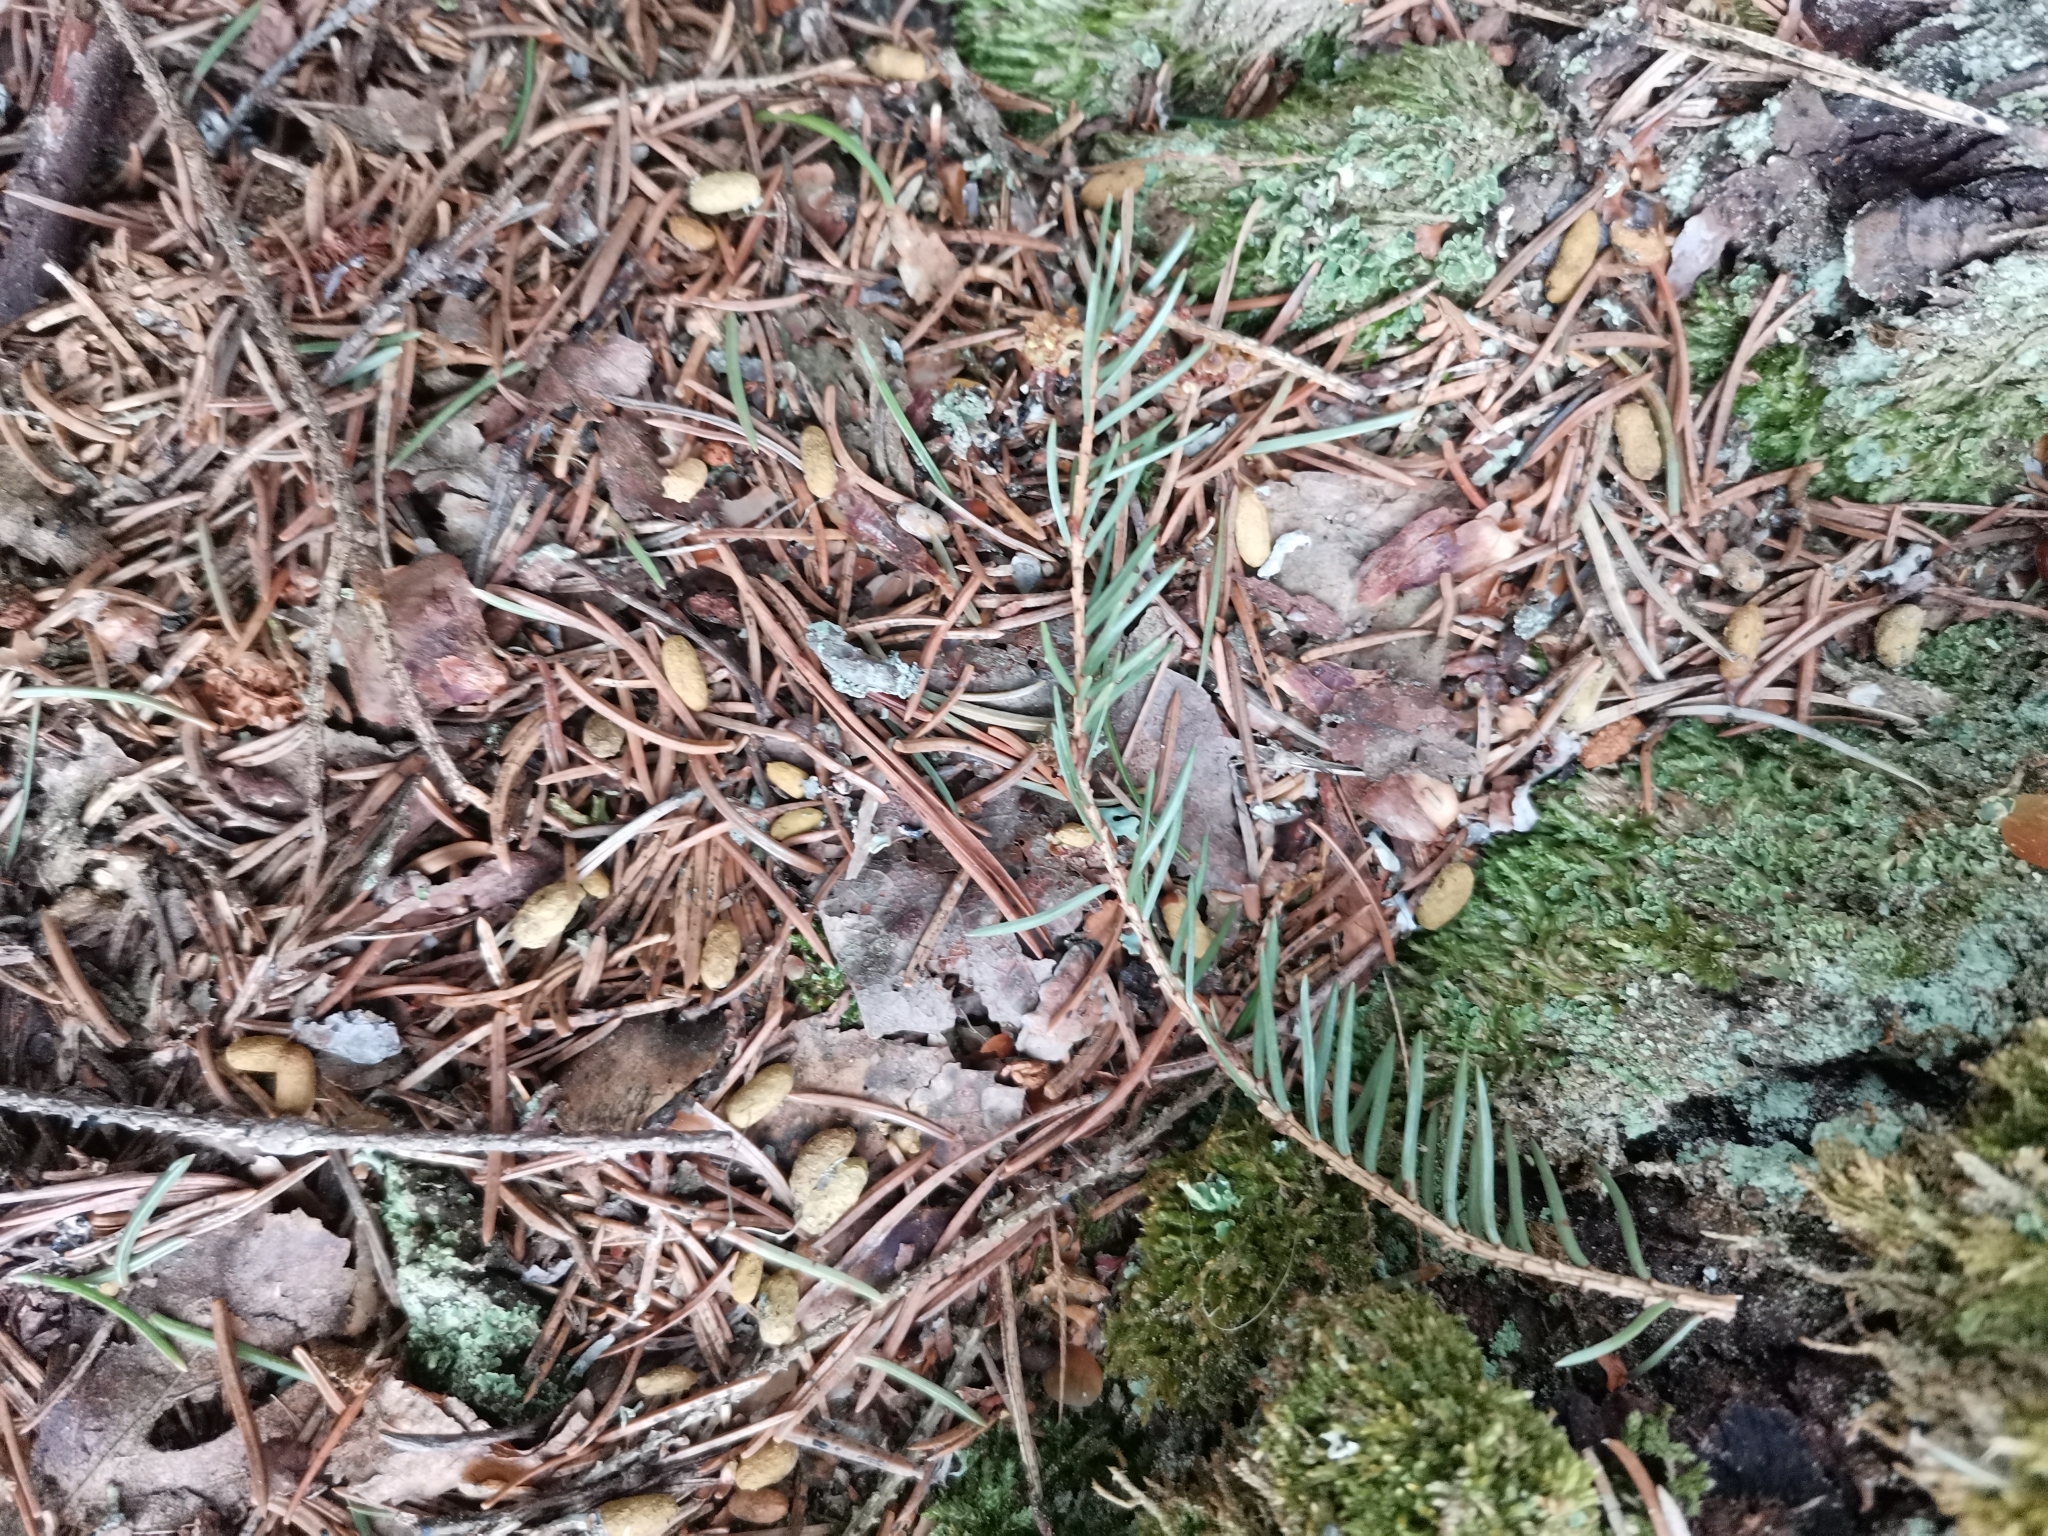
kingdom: Animalia
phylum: Chordata
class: Mammalia
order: Rodentia
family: Sciuridae
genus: Pteromys
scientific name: Pteromys volans
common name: Siberian flying squirrel
